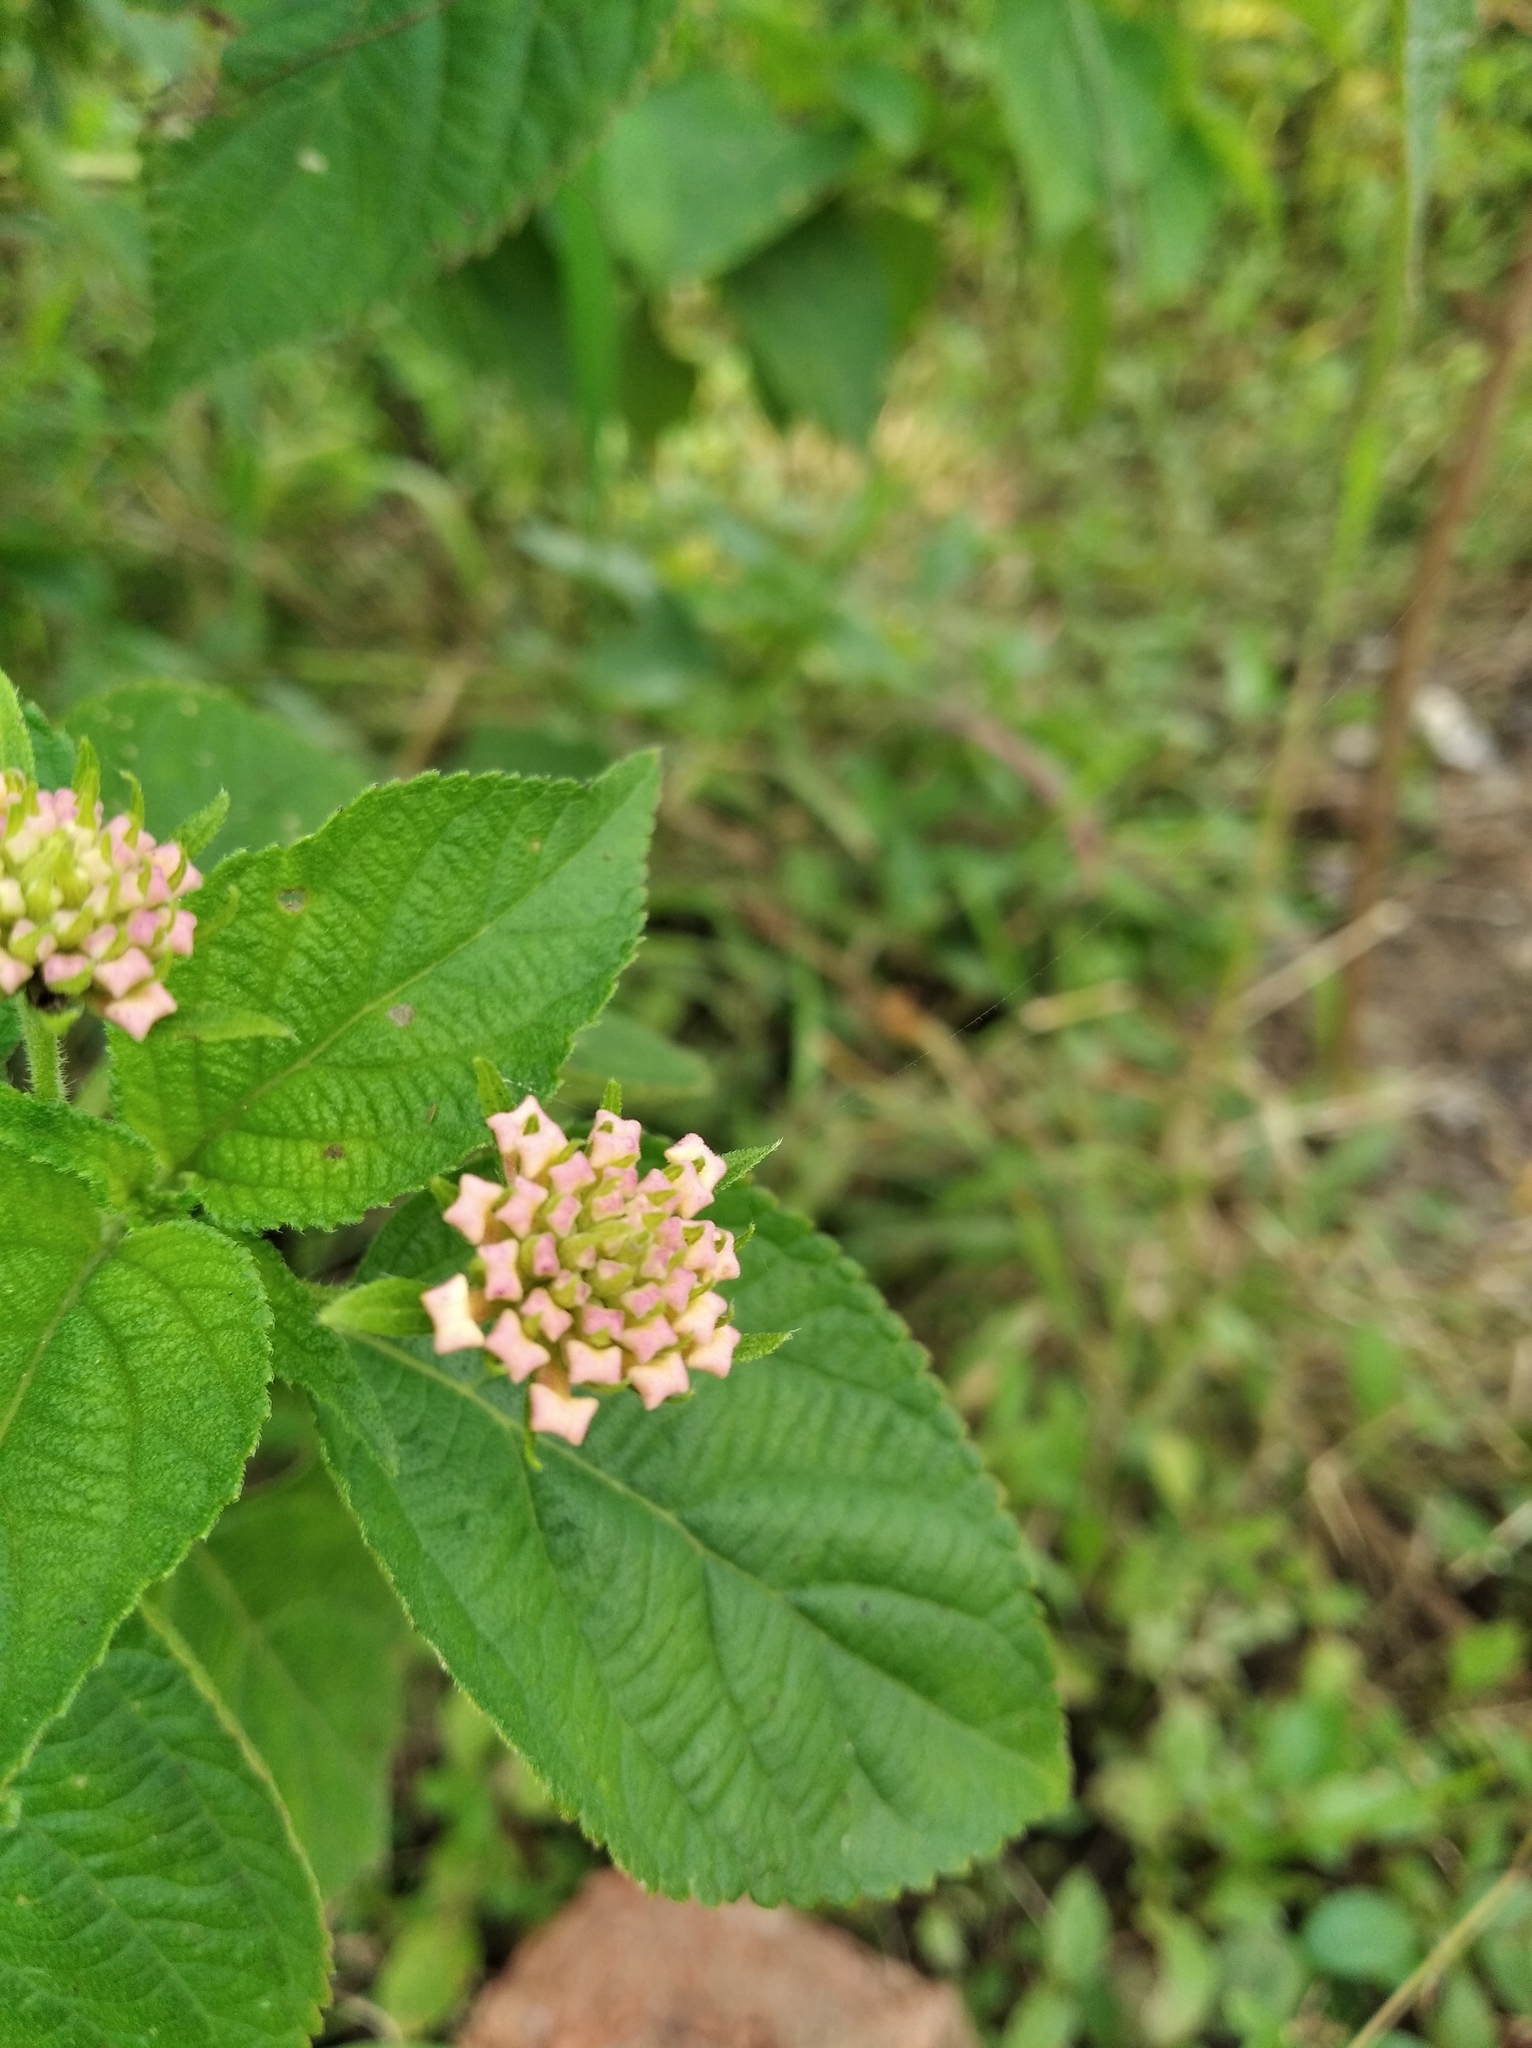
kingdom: Plantae
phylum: Tracheophyta
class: Magnoliopsida
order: Lamiales
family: Verbenaceae
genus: Lantana
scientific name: Lantana camara
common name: Lantana
